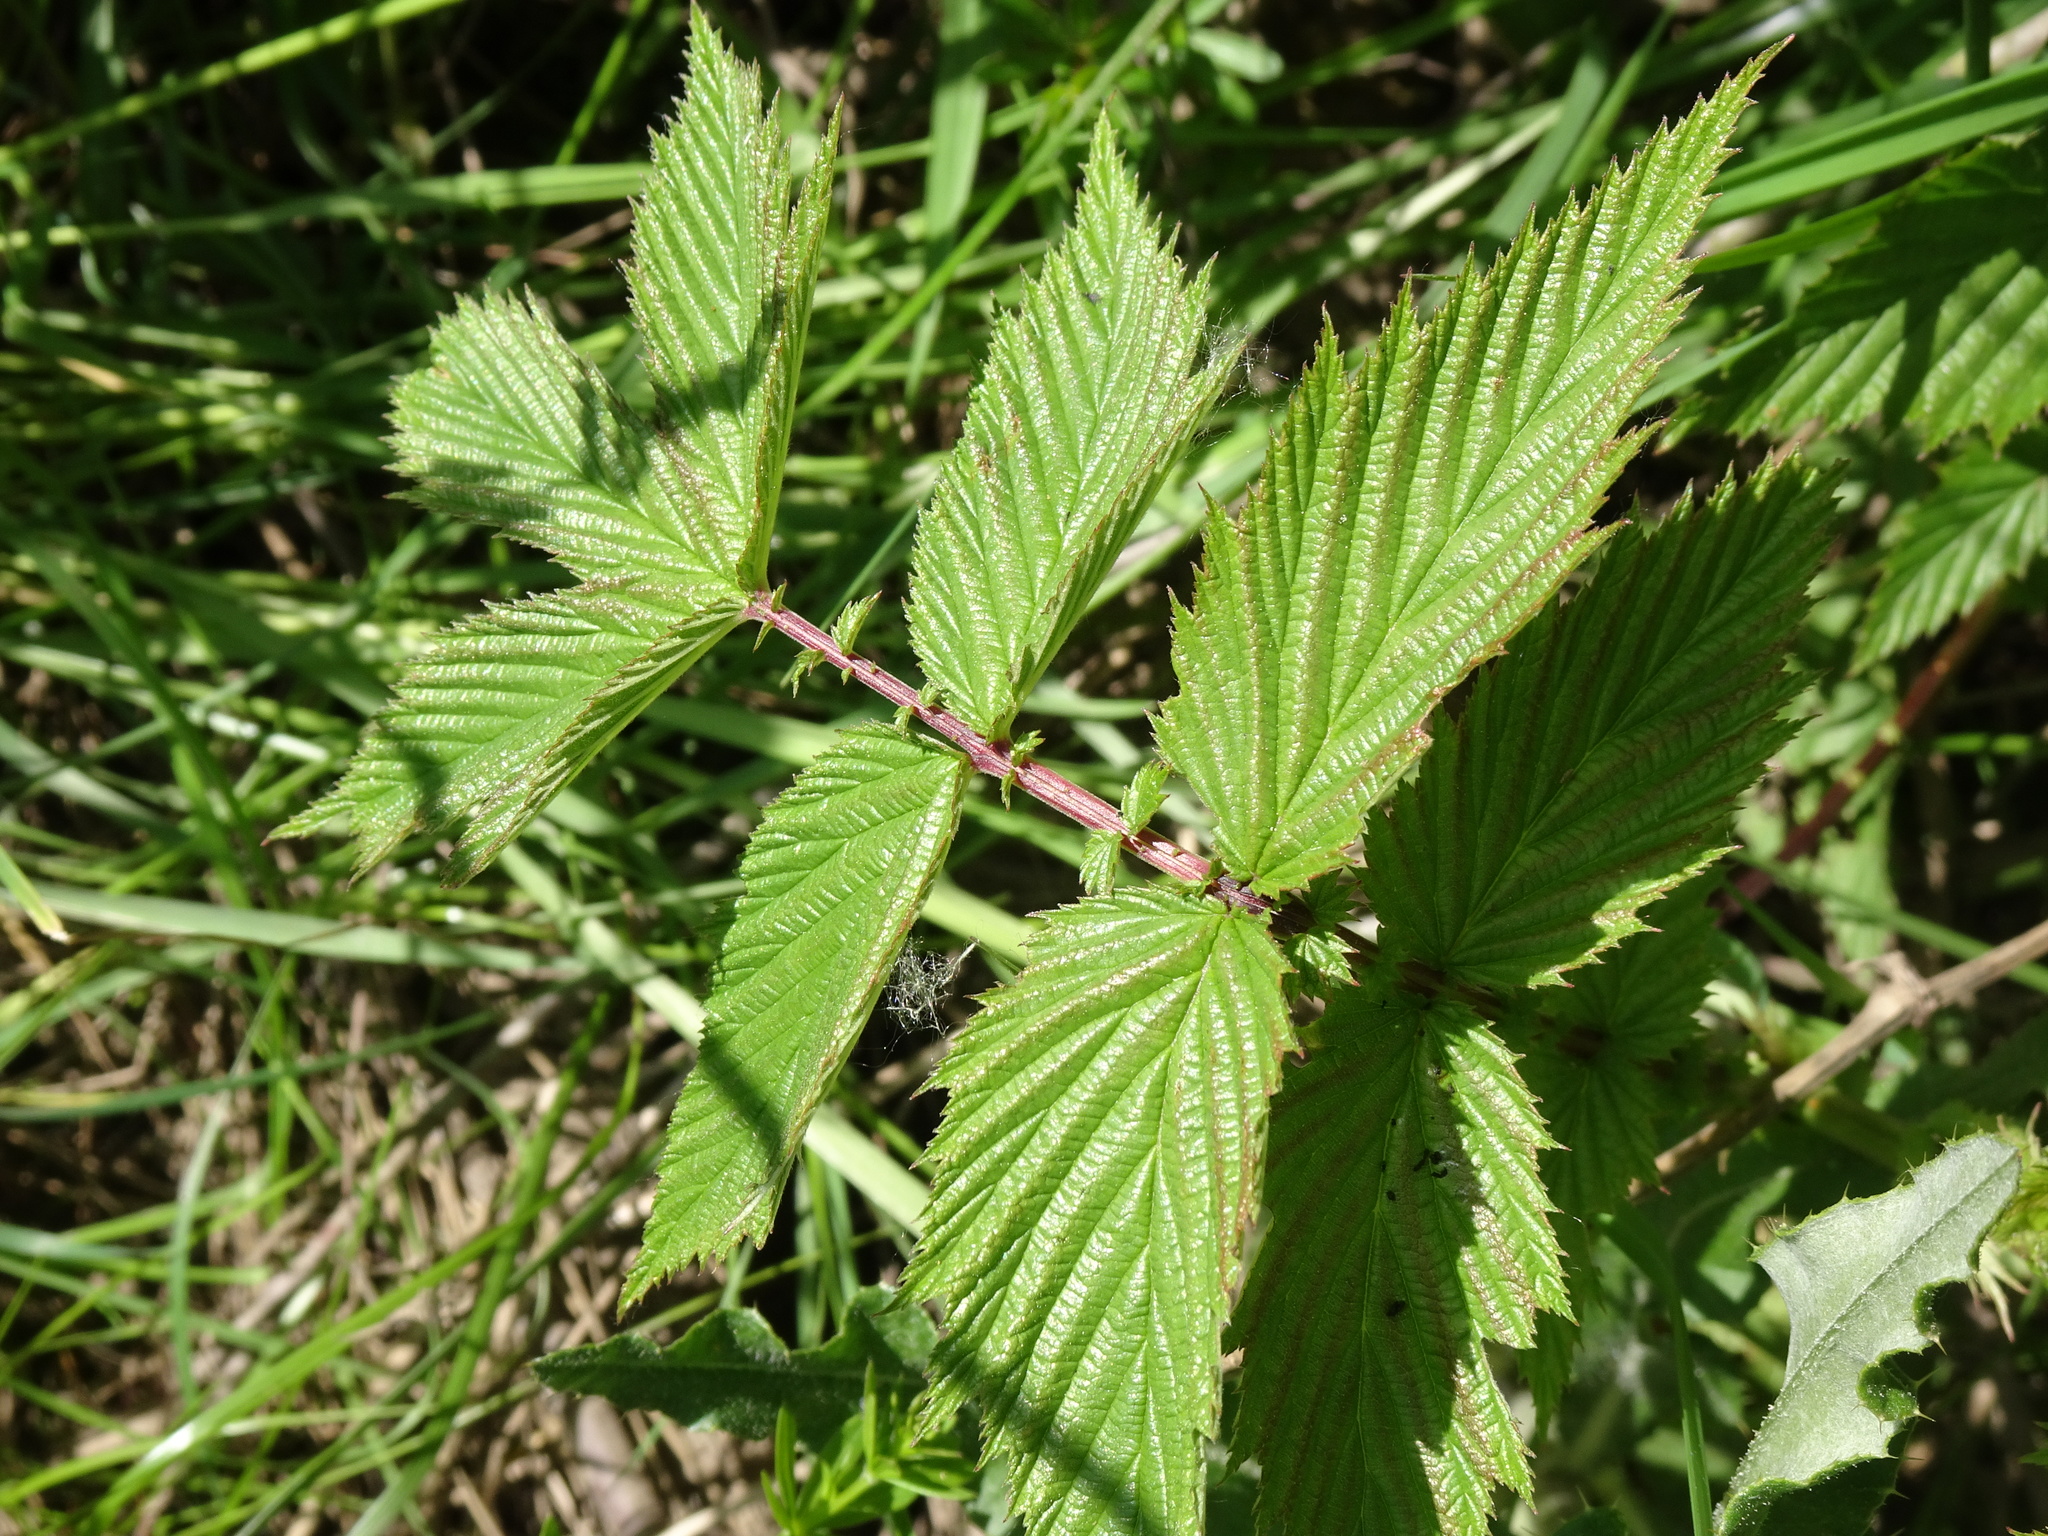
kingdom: Plantae
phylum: Tracheophyta
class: Magnoliopsida
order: Rosales
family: Rosaceae
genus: Filipendula
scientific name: Filipendula ulmaria
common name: Meadowsweet
